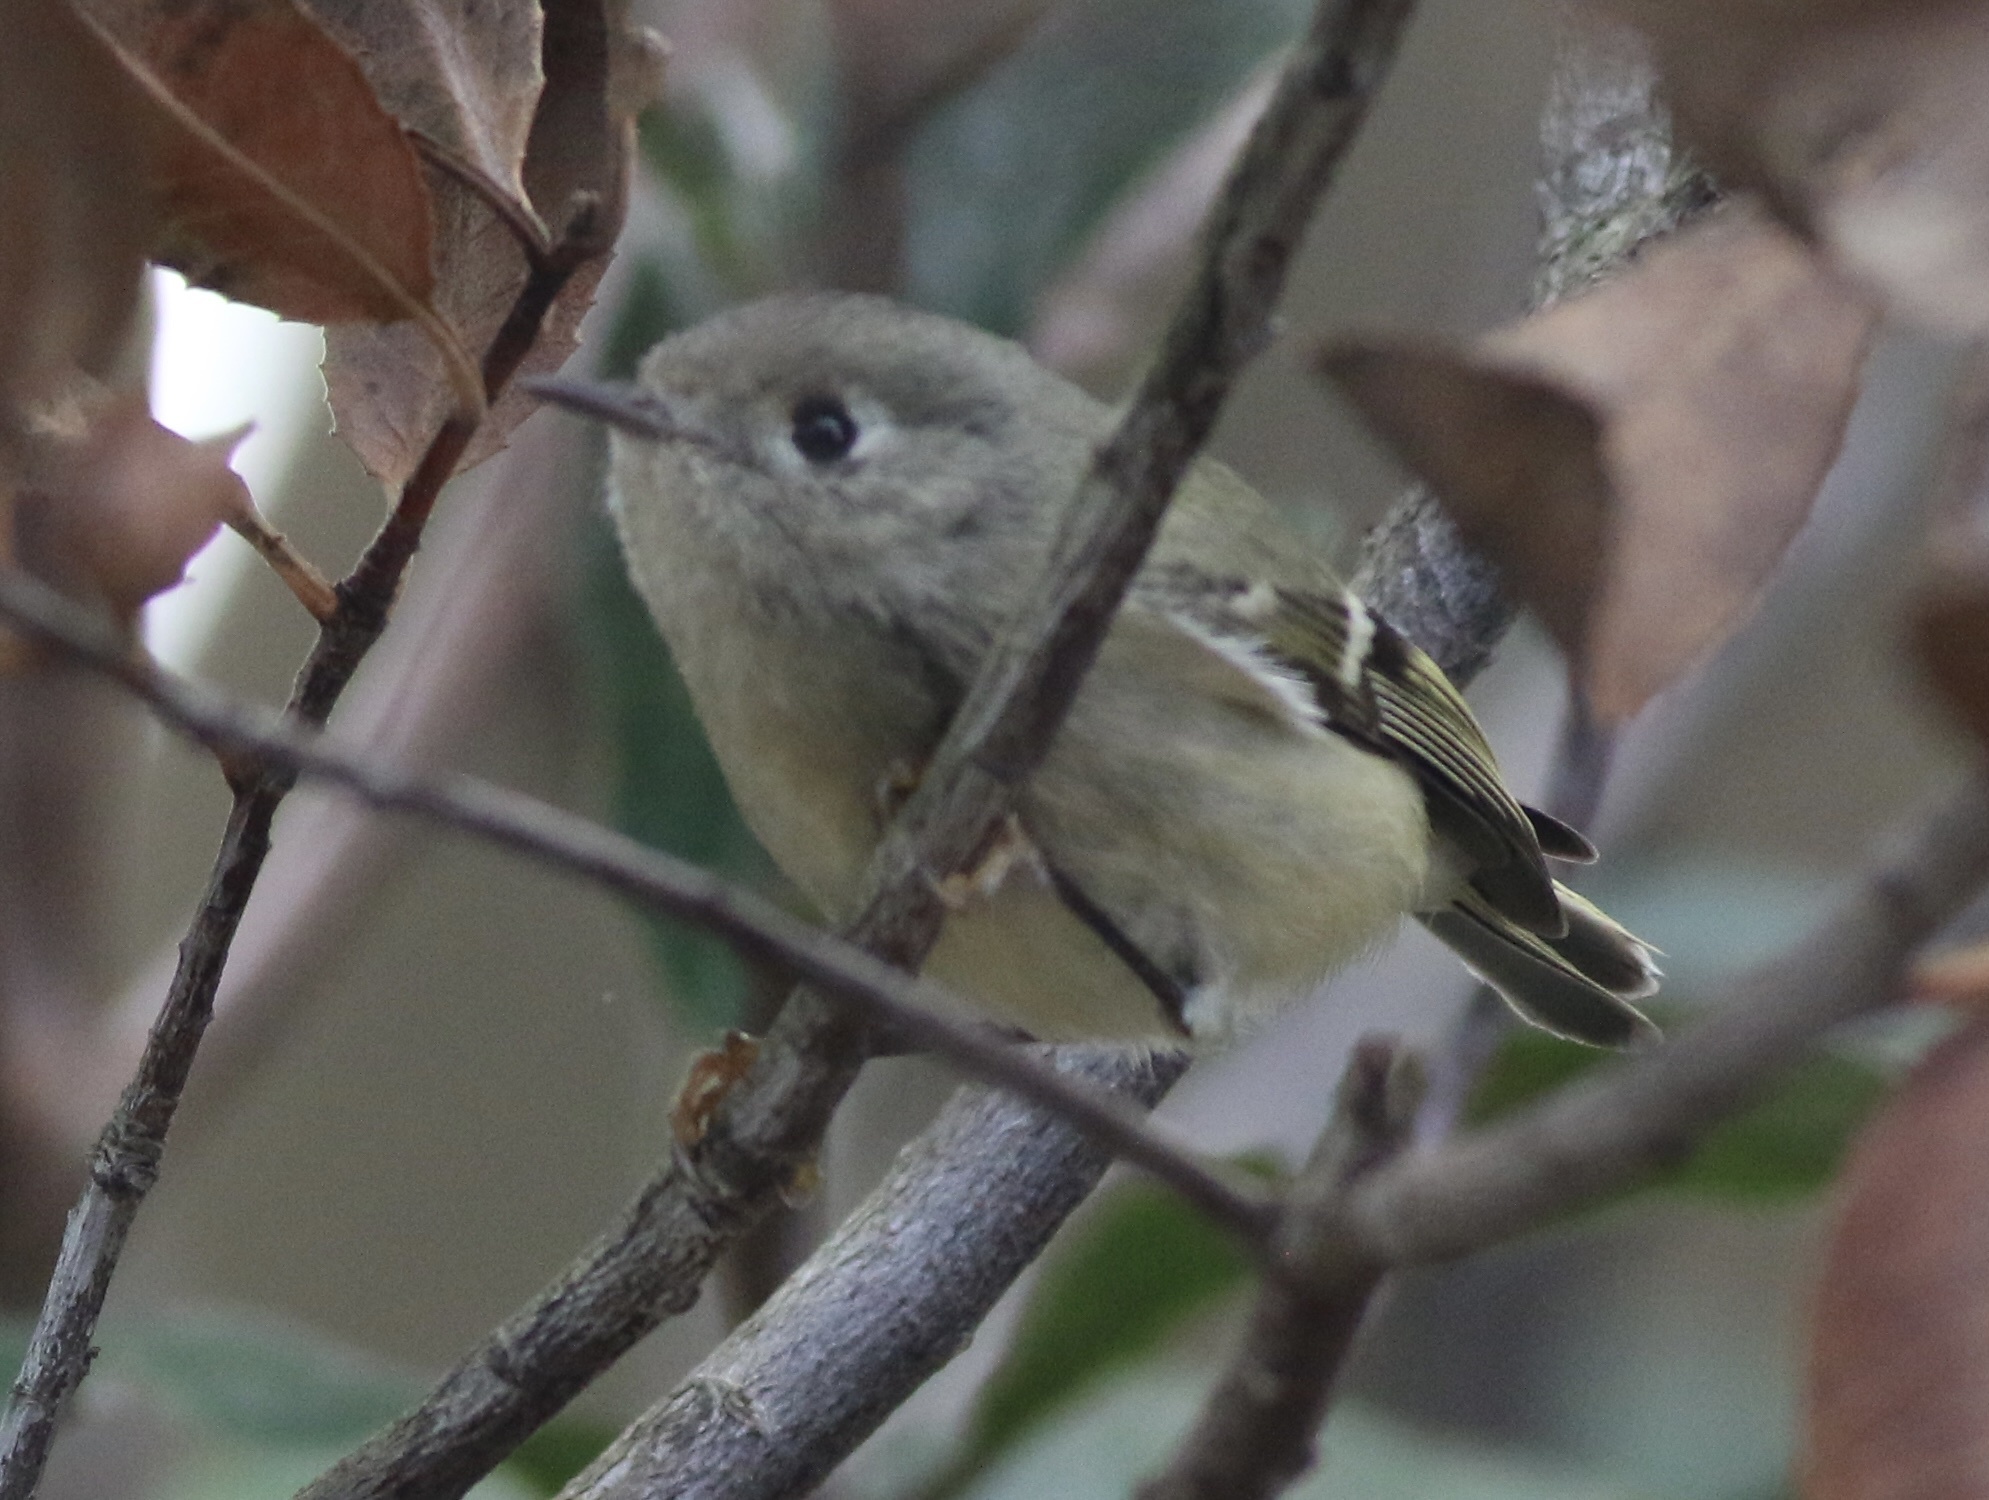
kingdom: Animalia
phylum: Chordata
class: Aves
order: Passeriformes
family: Regulidae
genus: Regulus
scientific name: Regulus calendula
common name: Ruby-crowned kinglet
